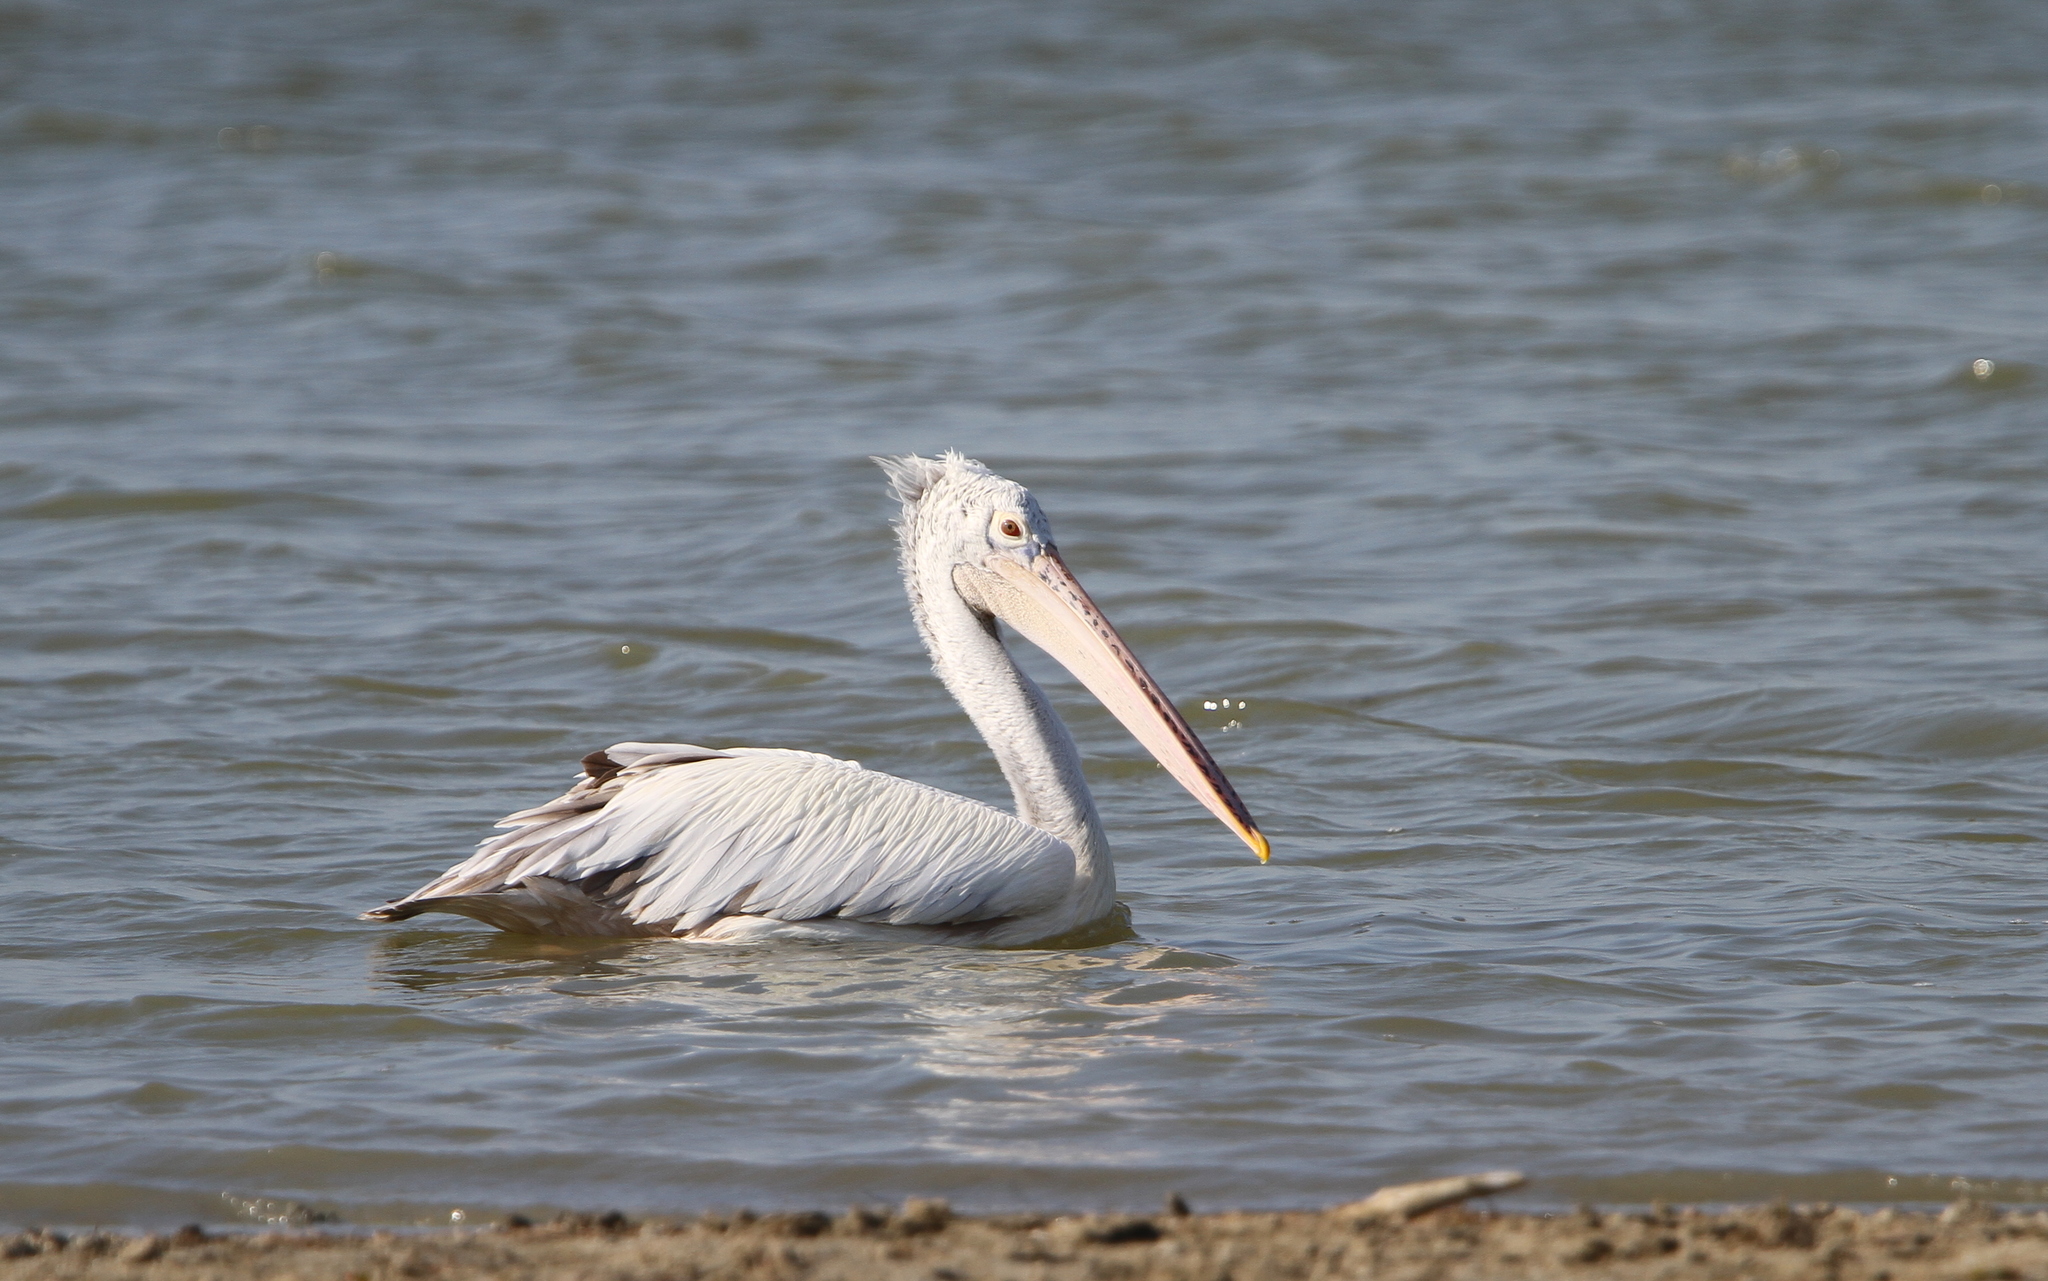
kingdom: Animalia
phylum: Chordata
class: Aves
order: Pelecaniformes
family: Pelecanidae
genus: Pelecanus
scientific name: Pelecanus philippensis
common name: Spot-billed pelican
